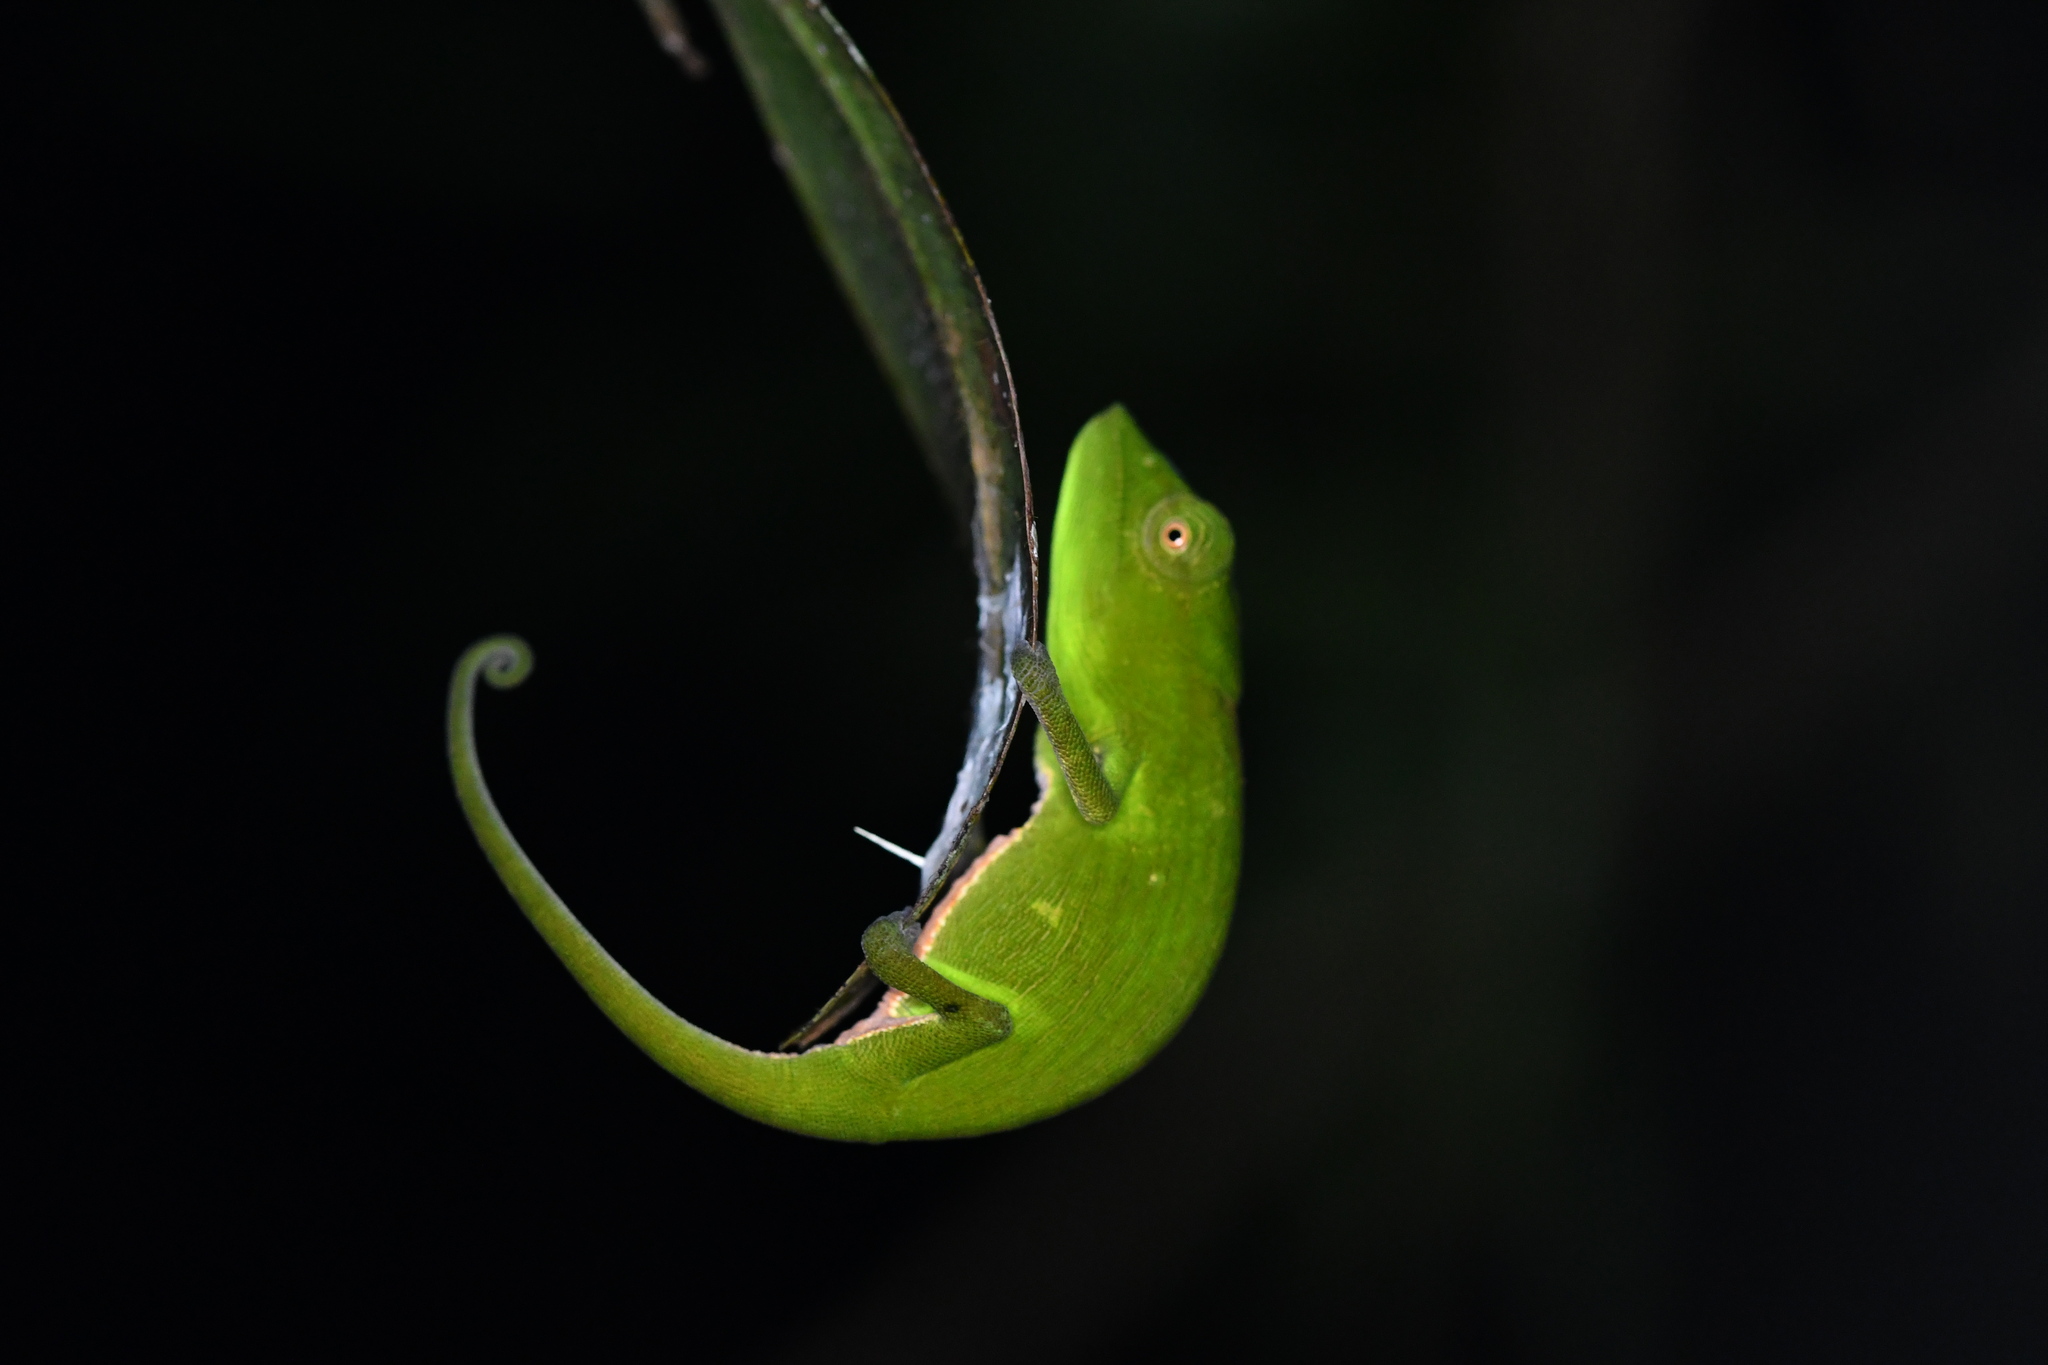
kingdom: Animalia
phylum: Chordata
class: Squamata
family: Chamaeleonidae
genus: Calumma
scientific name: Calumma glawi
